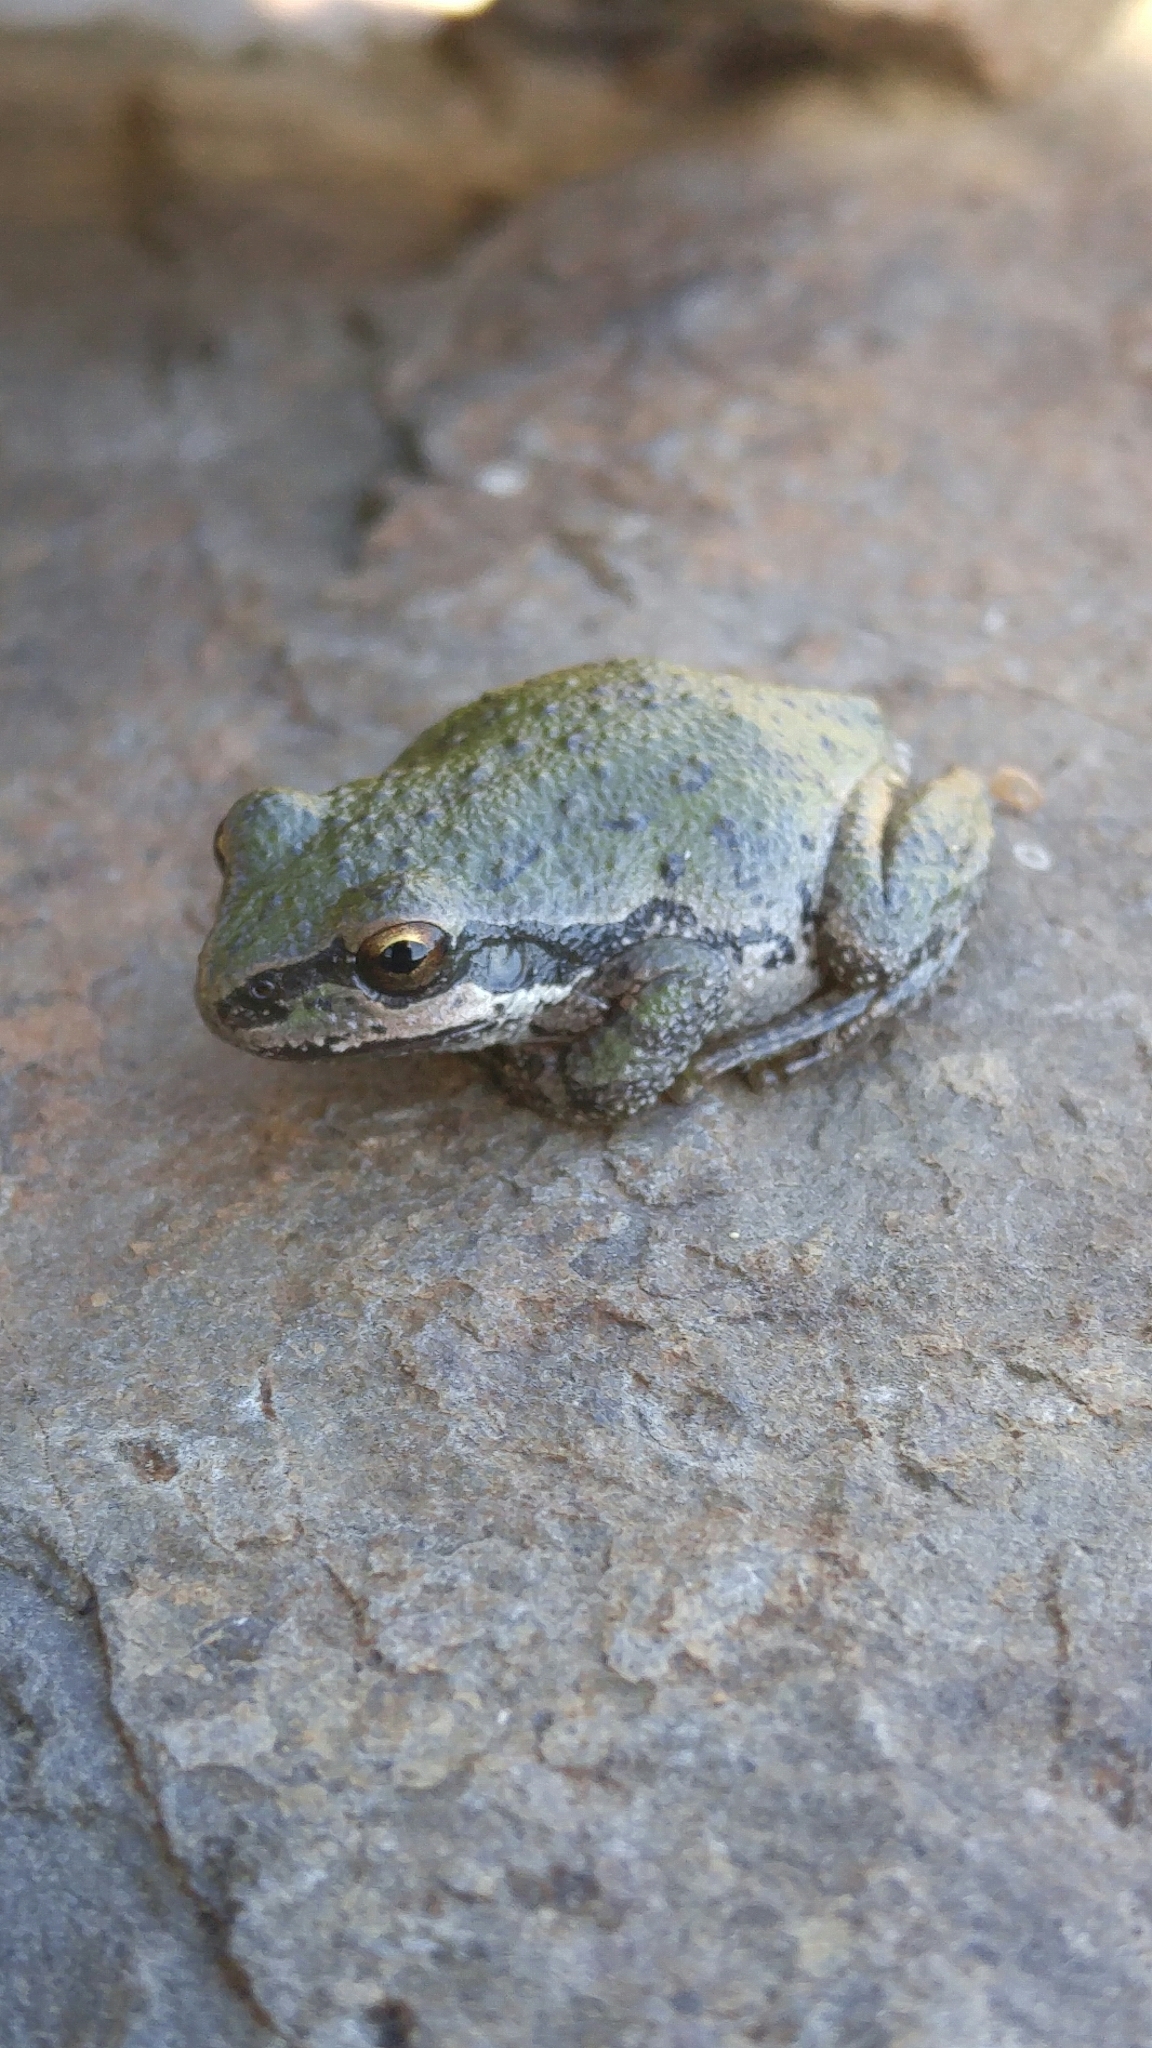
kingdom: Animalia
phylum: Chordata
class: Amphibia
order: Anura
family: Hylidae
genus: Pseudacris
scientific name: Pseudacris regilla
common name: Pacific chorus frog
